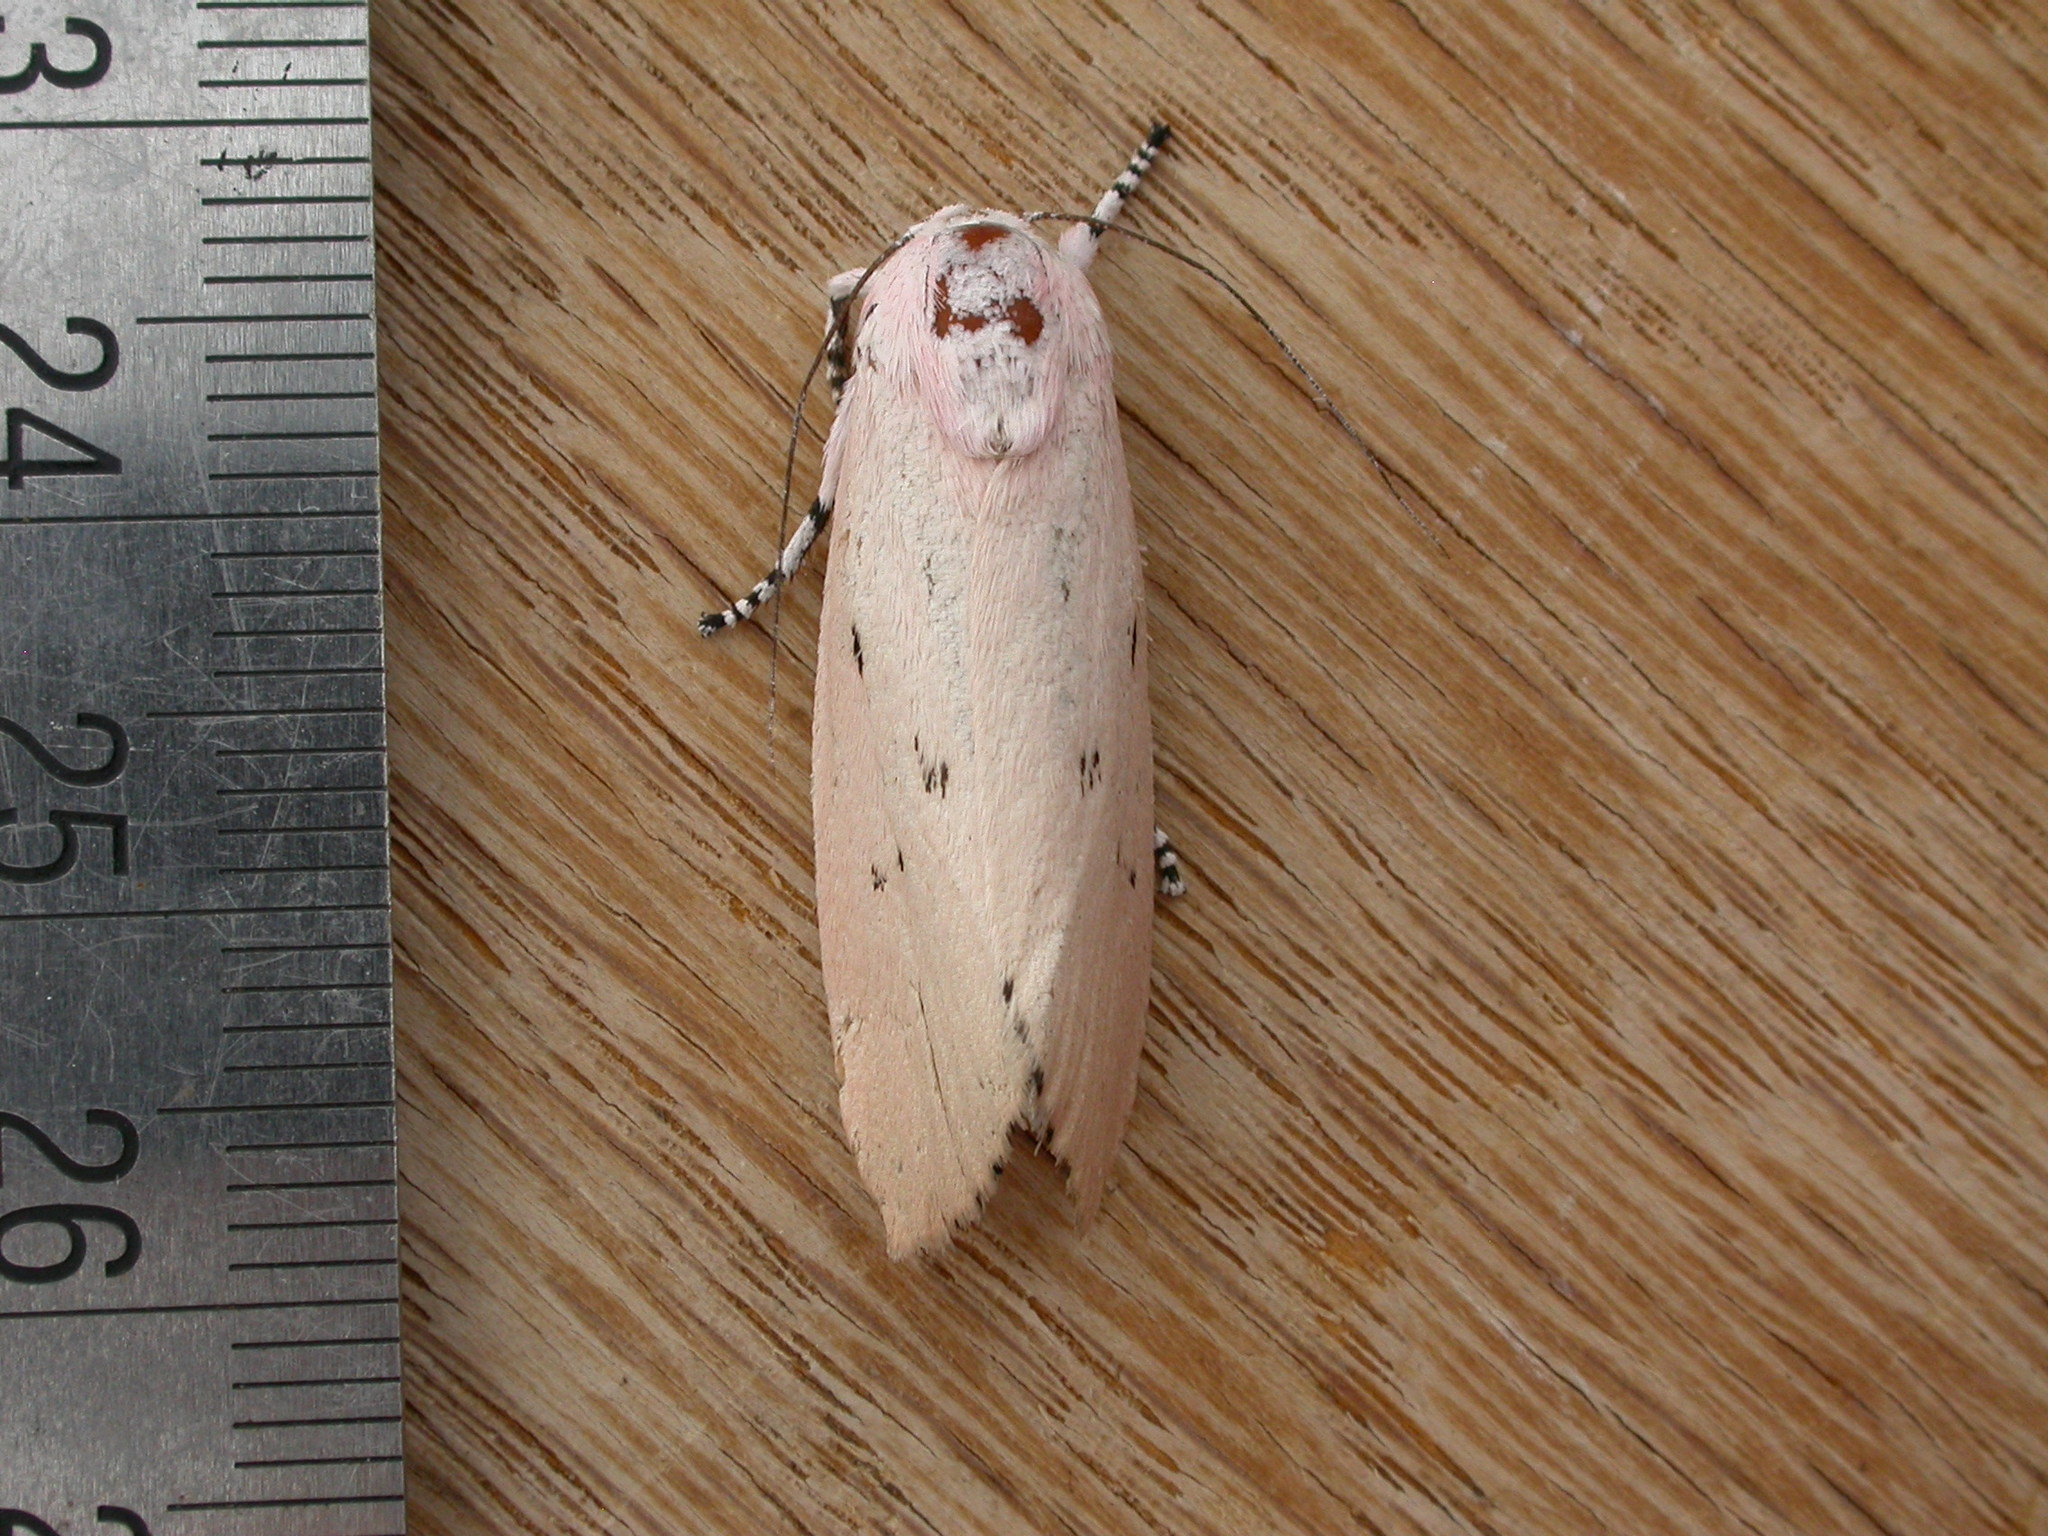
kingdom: Animalia
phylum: Arthropoda
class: Insecta
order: Lepidoptera
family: Xyloryctidae
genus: Cryptophasa
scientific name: Cryptophasa hyalinopa
